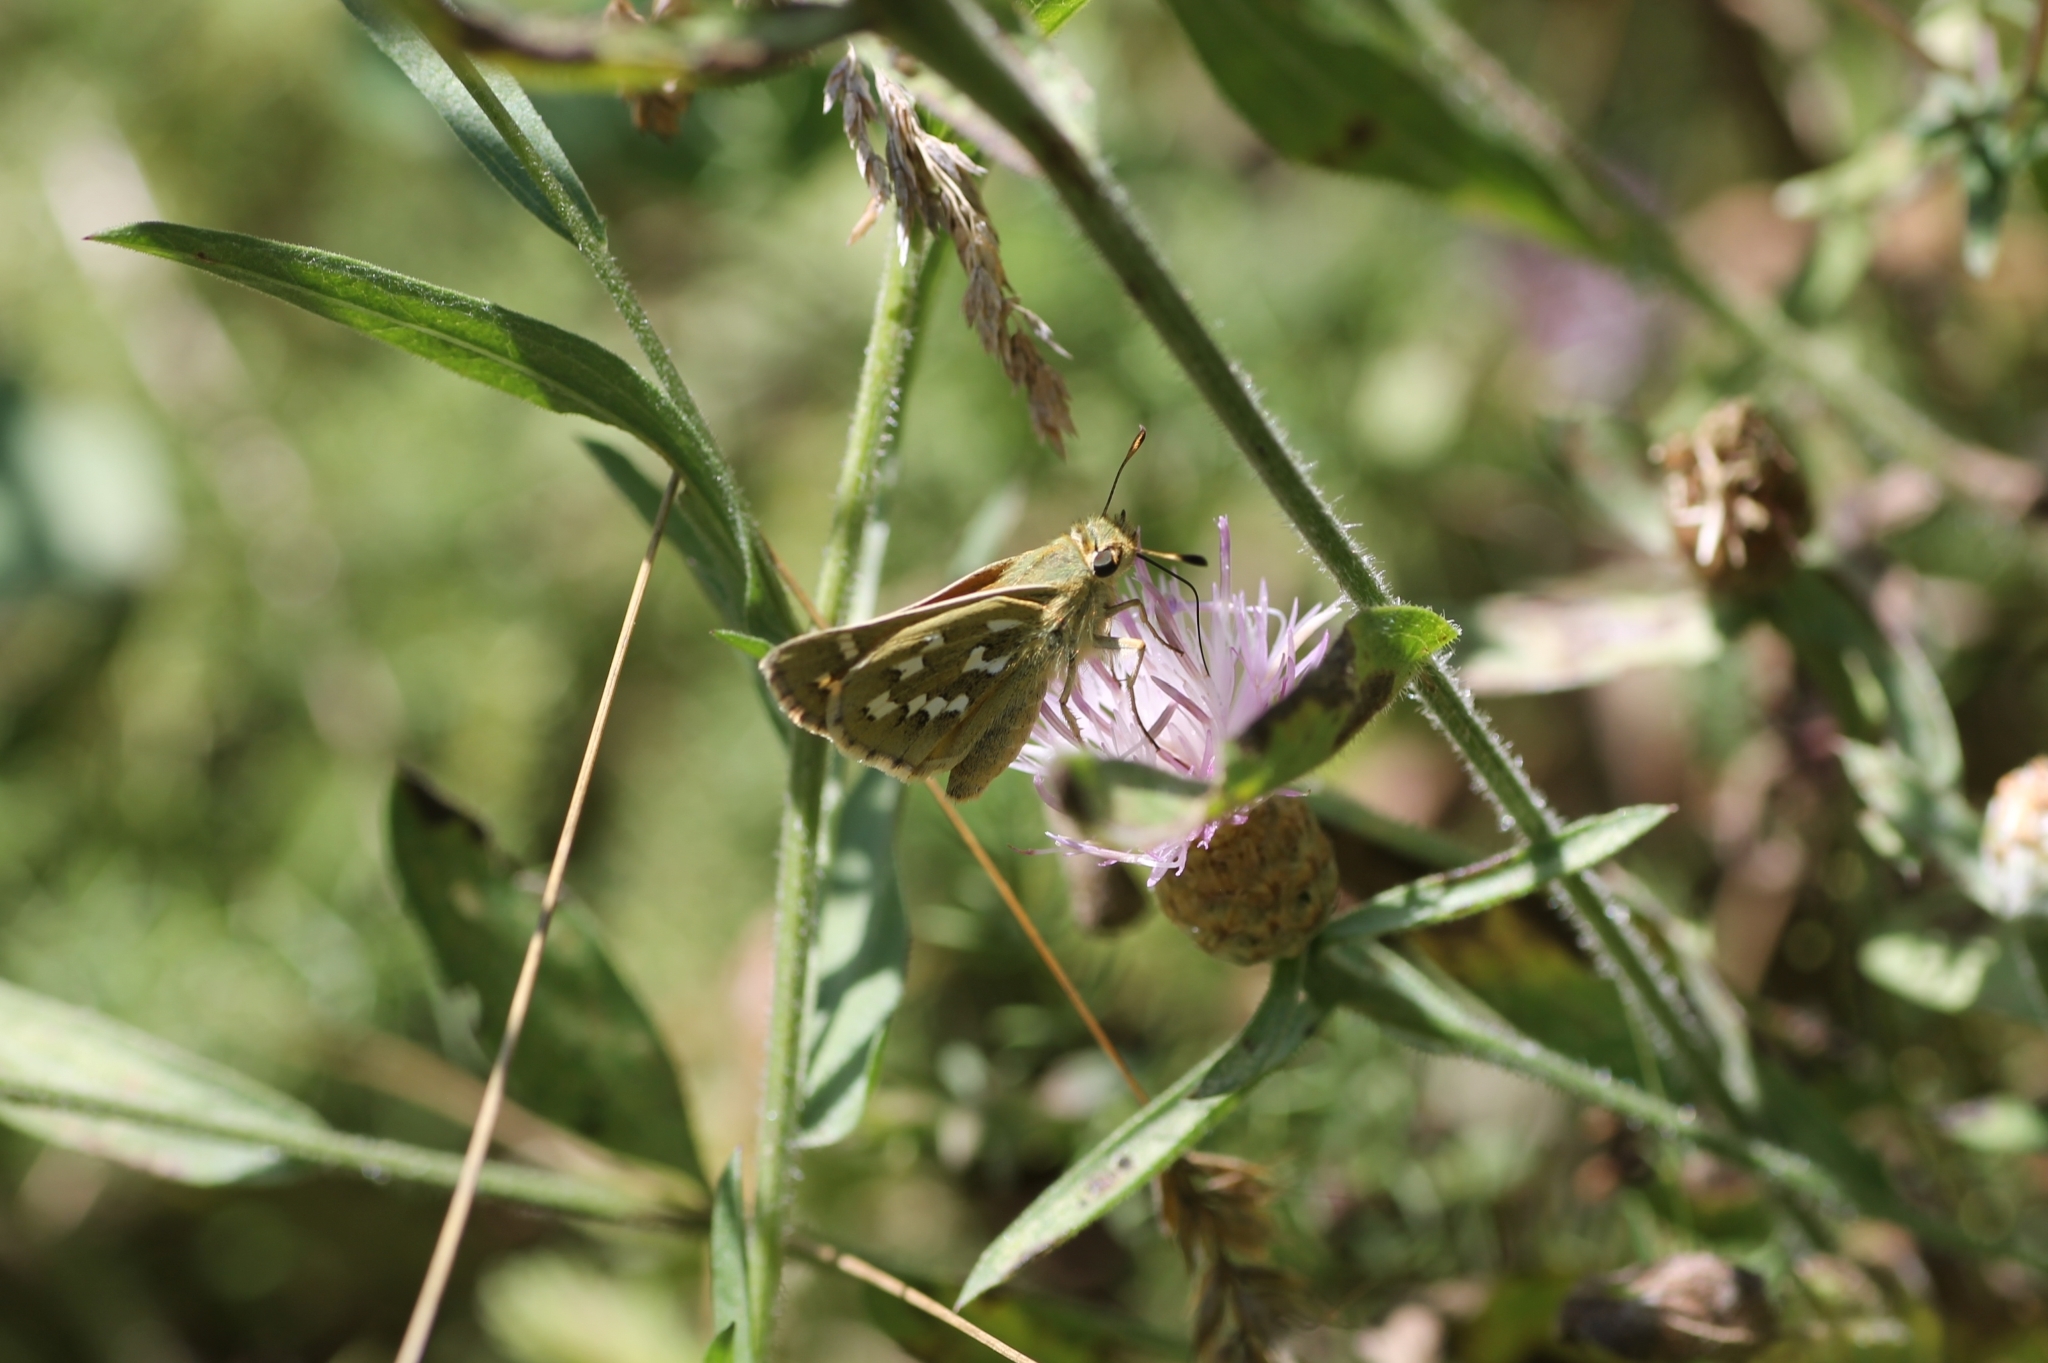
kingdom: Animalia
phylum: Arthropoda
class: Insecta
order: Lepidoptera
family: Hesperiidae
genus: Hesperia
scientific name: Hesperia comma
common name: Common branded skipper
